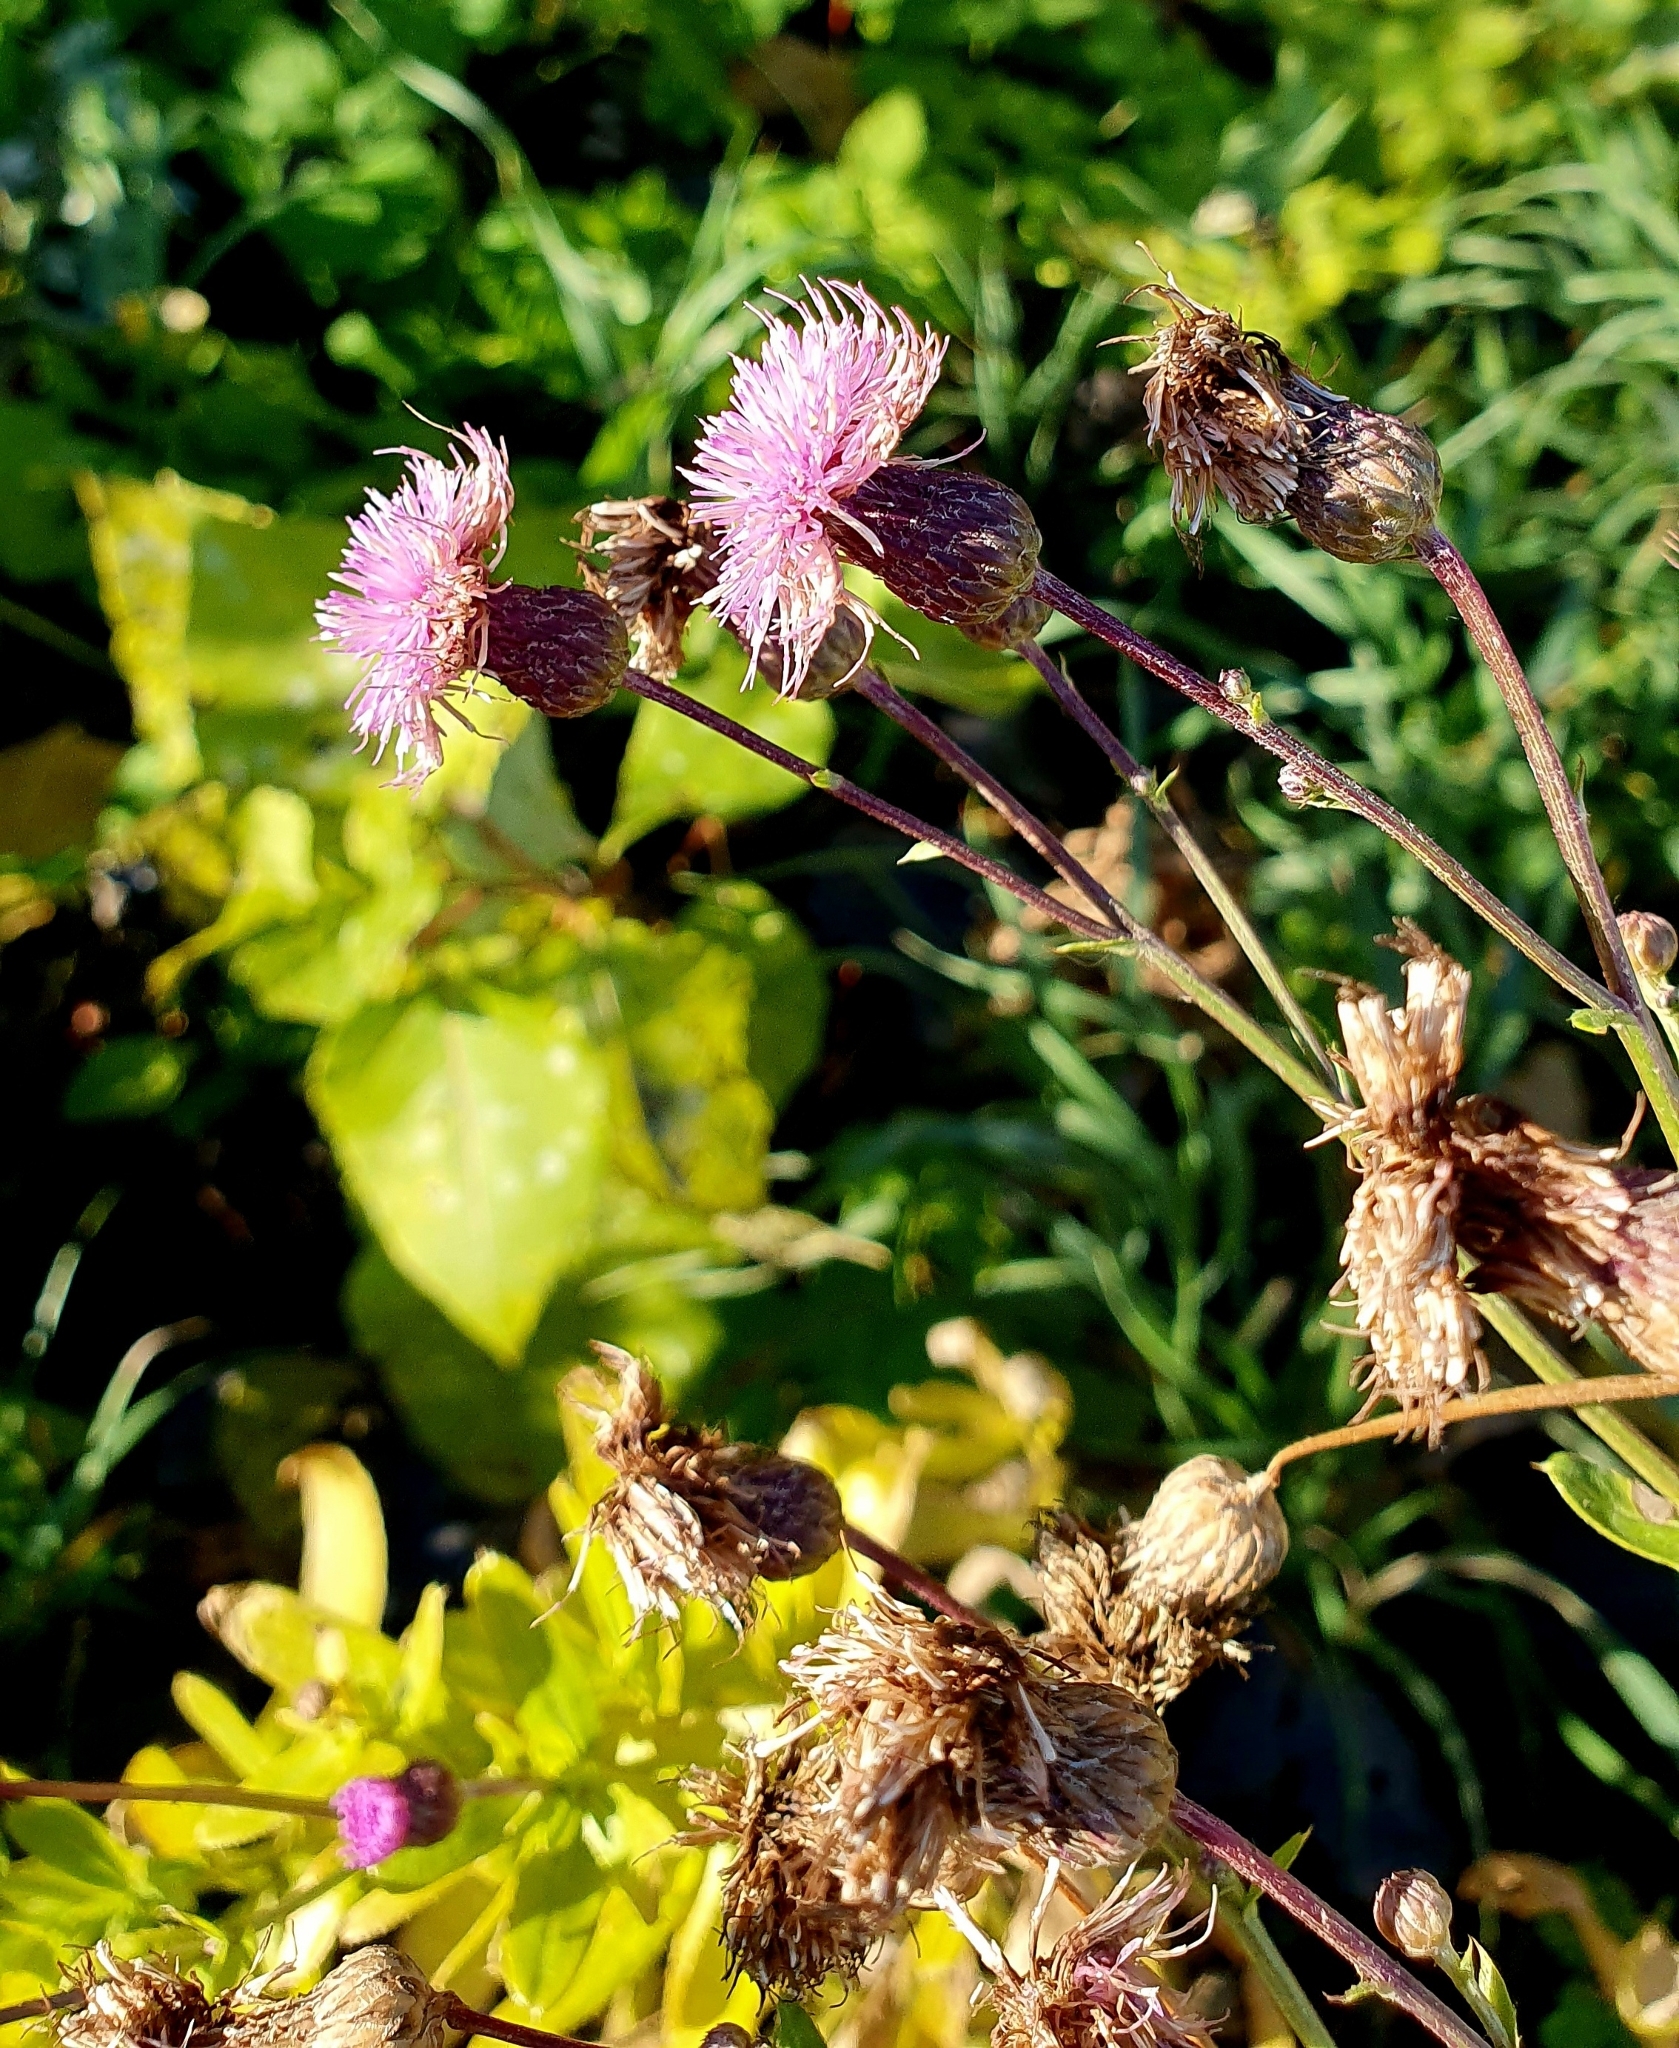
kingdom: Plantae
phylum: Tracheophyta
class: Magnoliopsida
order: Asterales
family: Asteraceae
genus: Cirsium
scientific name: Cirsium arvense
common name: Creeping thistle
